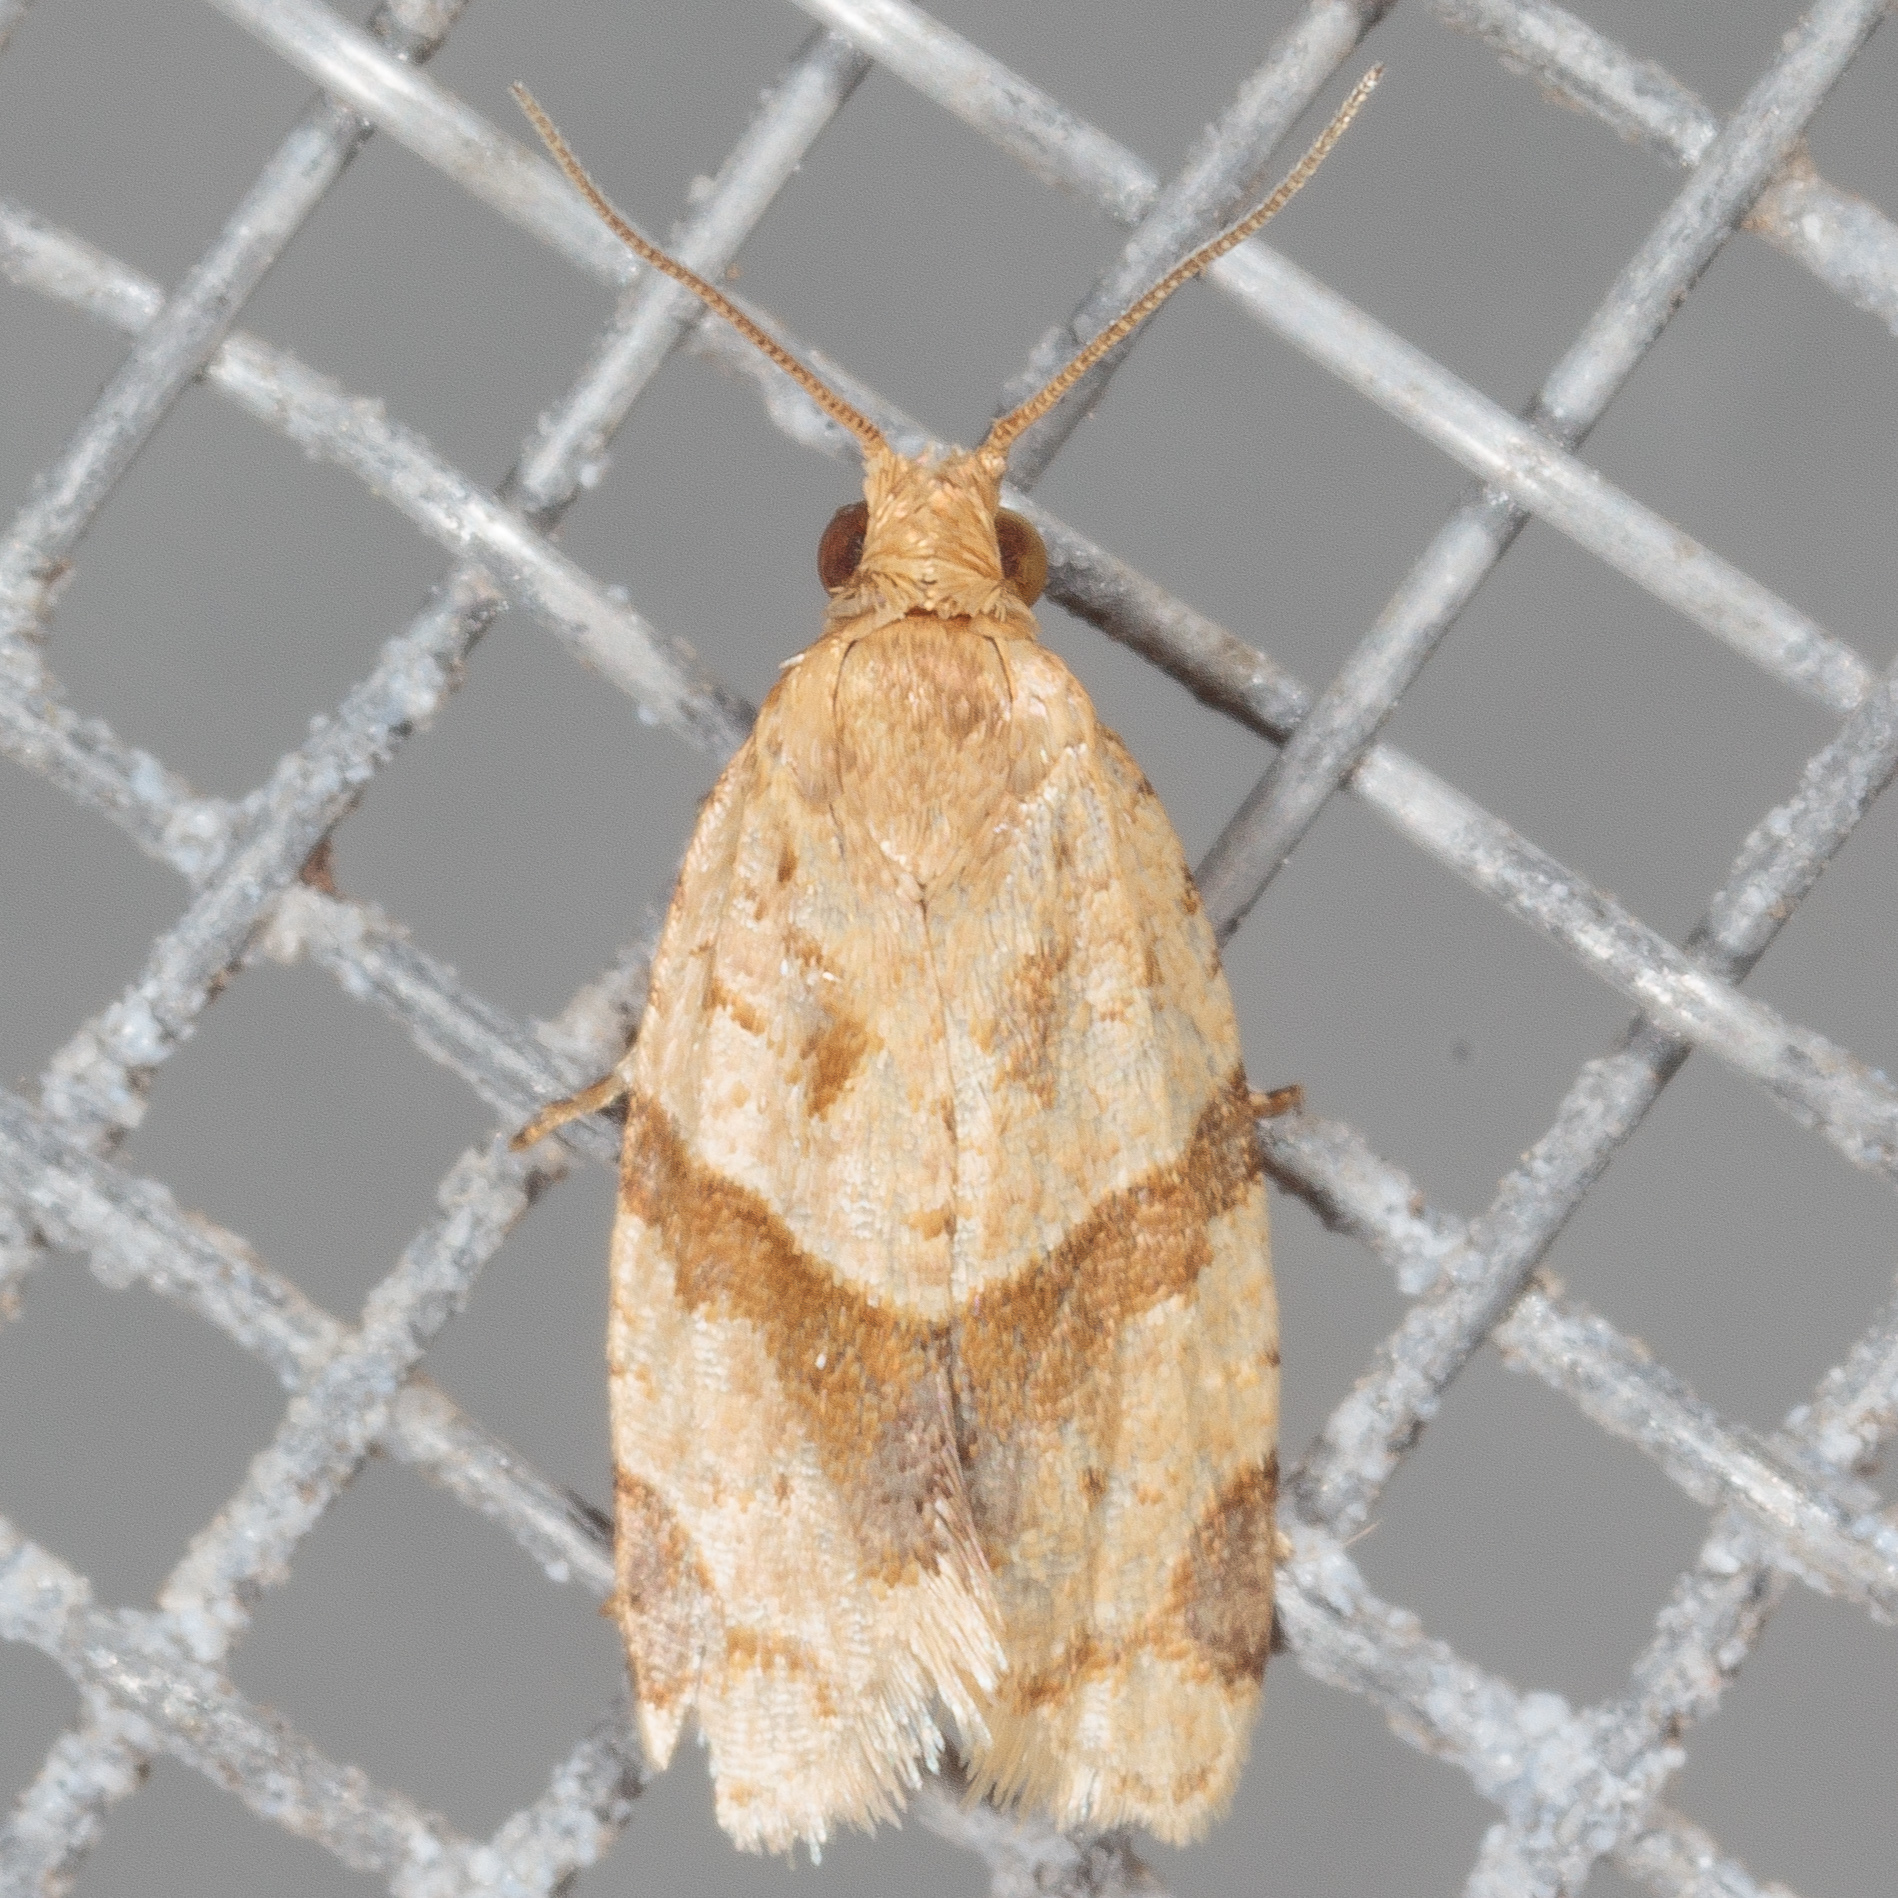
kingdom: Animalia
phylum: Arthropoda
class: Insecta
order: Lepidoptera
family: Tortricidae
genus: Clepsis
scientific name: Clepsis peritana
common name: Garden tortrix
